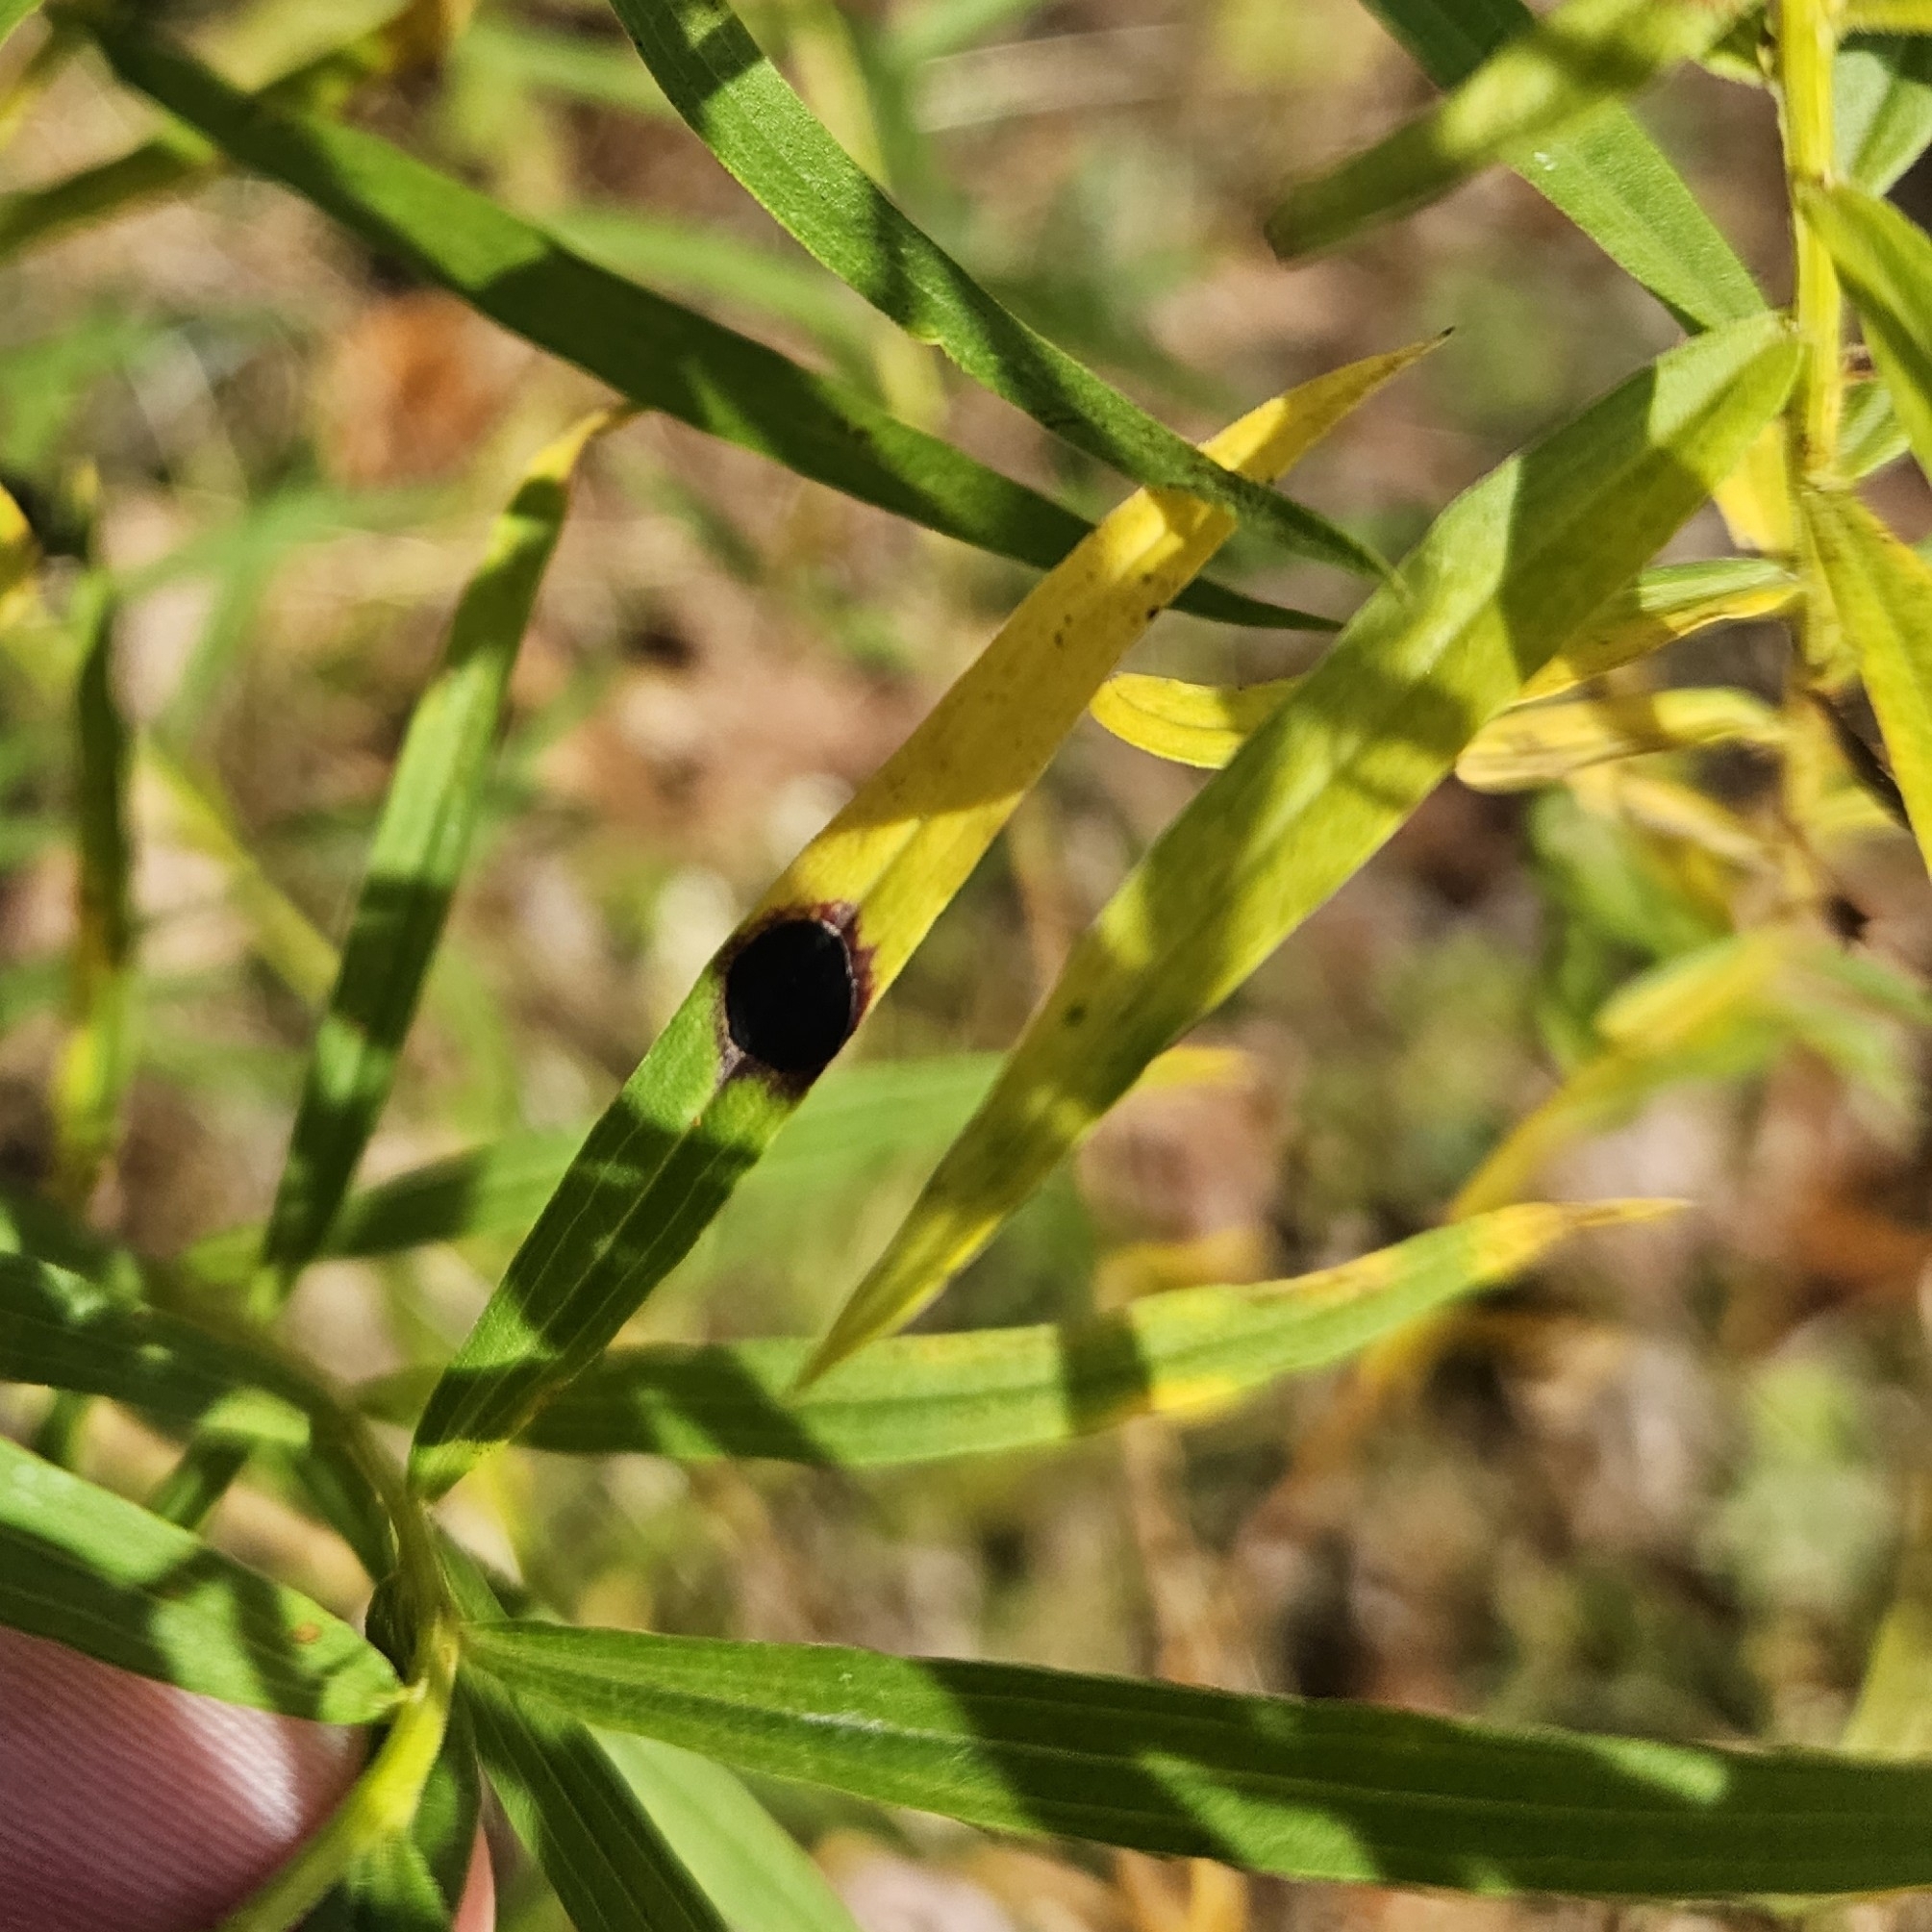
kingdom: Animalia
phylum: Arthropoda
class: Insecta
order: Diptera
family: Cecidomyiidae
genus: Asteromyia
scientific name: Asteromyia euthamiae
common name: Euthamia leaf gall midge
